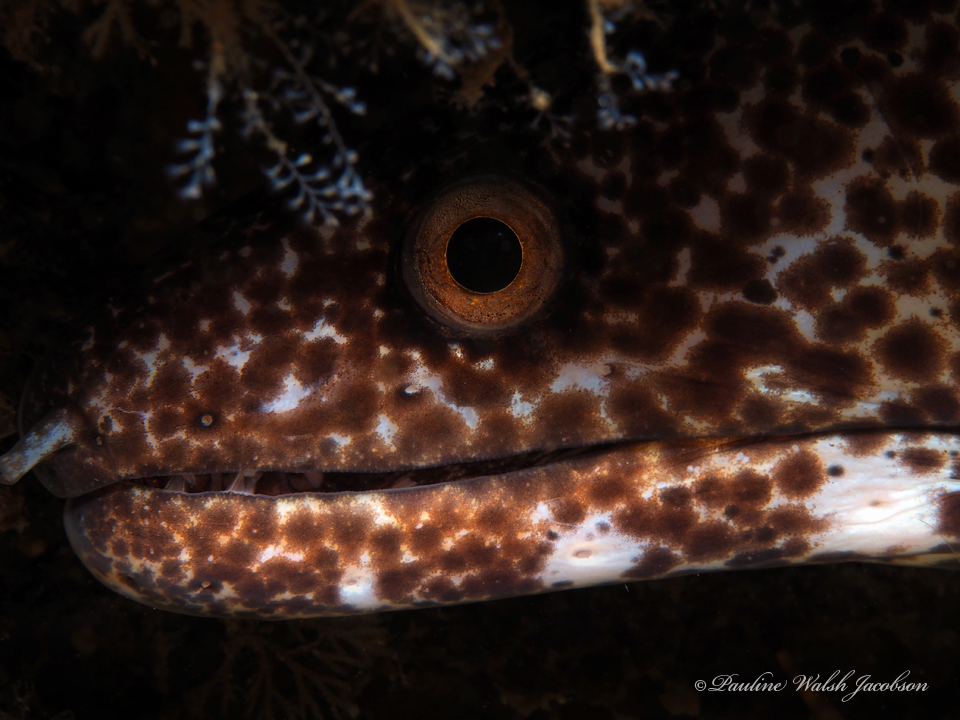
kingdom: Animalia
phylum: Chordata
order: Anguilliformes
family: Muraenidae
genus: Gymnothorax
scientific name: Gymnothorax moringa
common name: Spotted moray
